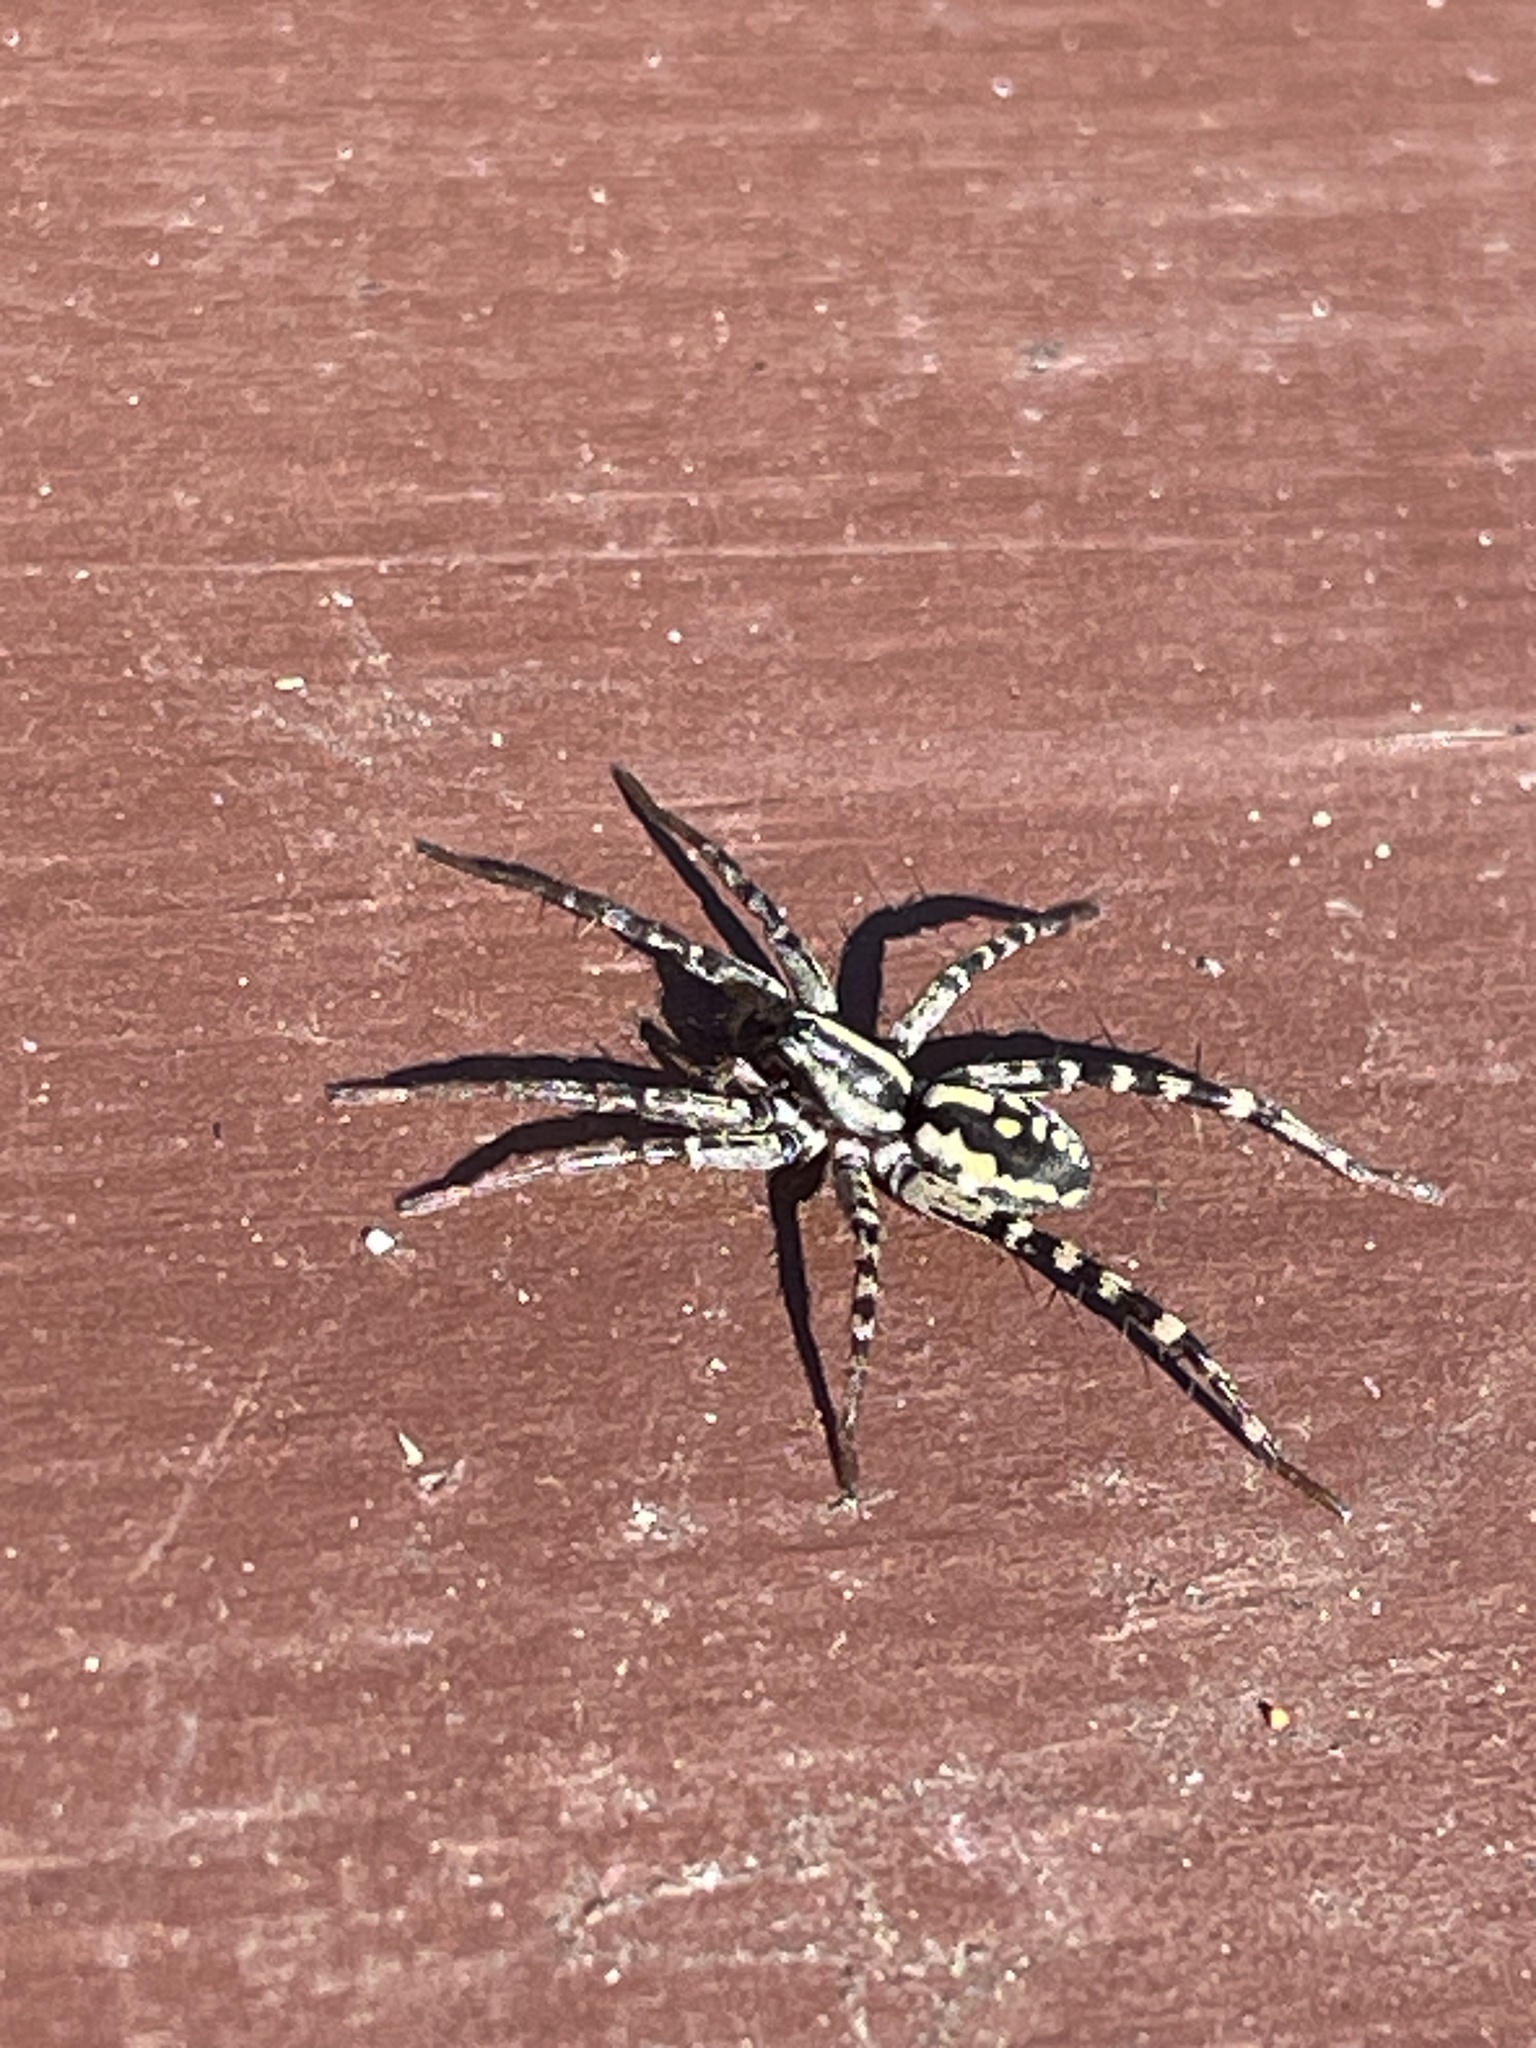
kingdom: Animalia
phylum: Arthropoda
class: Arachnida
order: Araneae
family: Corinnidae
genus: Nyssus
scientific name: Nyssus coloripes
